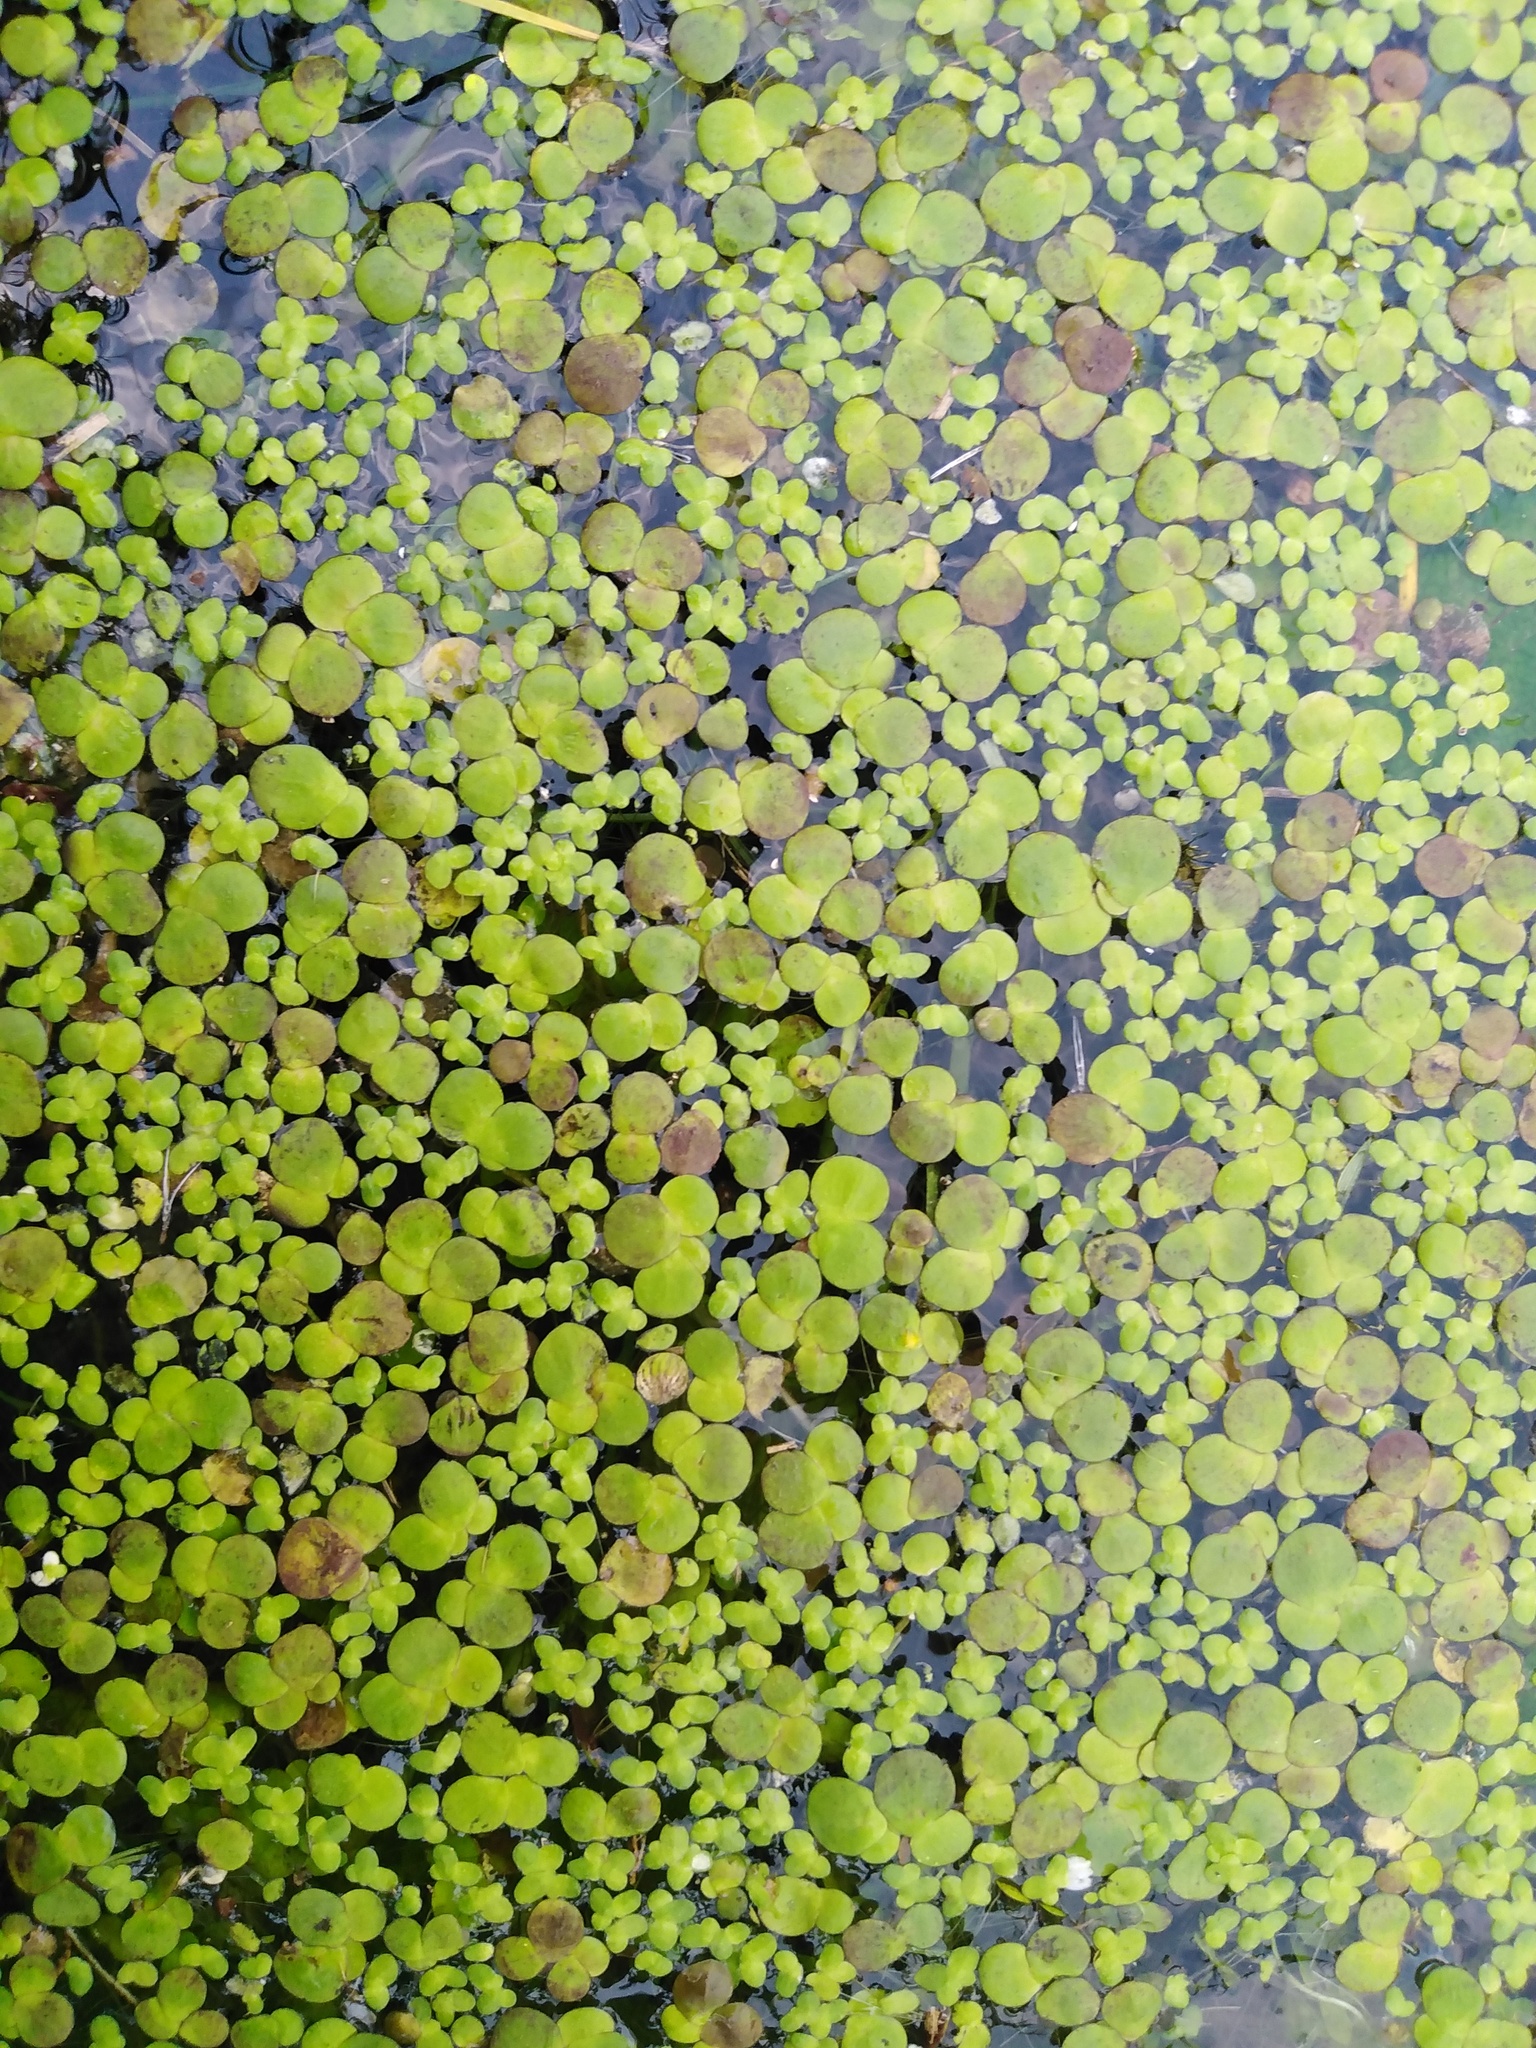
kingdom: Plantae
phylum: Tracheophyta
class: Liliopsida
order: Alismatales
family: Araceae
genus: Spirodela
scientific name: Spirodela polyrhiza
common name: Great duckweed
